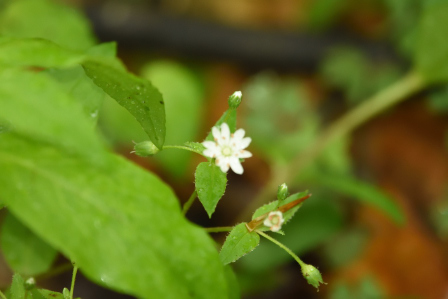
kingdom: Plantae
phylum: Tracheophyta
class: Magnoliopsida
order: Caryophyllales
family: Caryophyllaceae
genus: Stellaria
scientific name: Stellaria pubera
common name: Star chickweed
